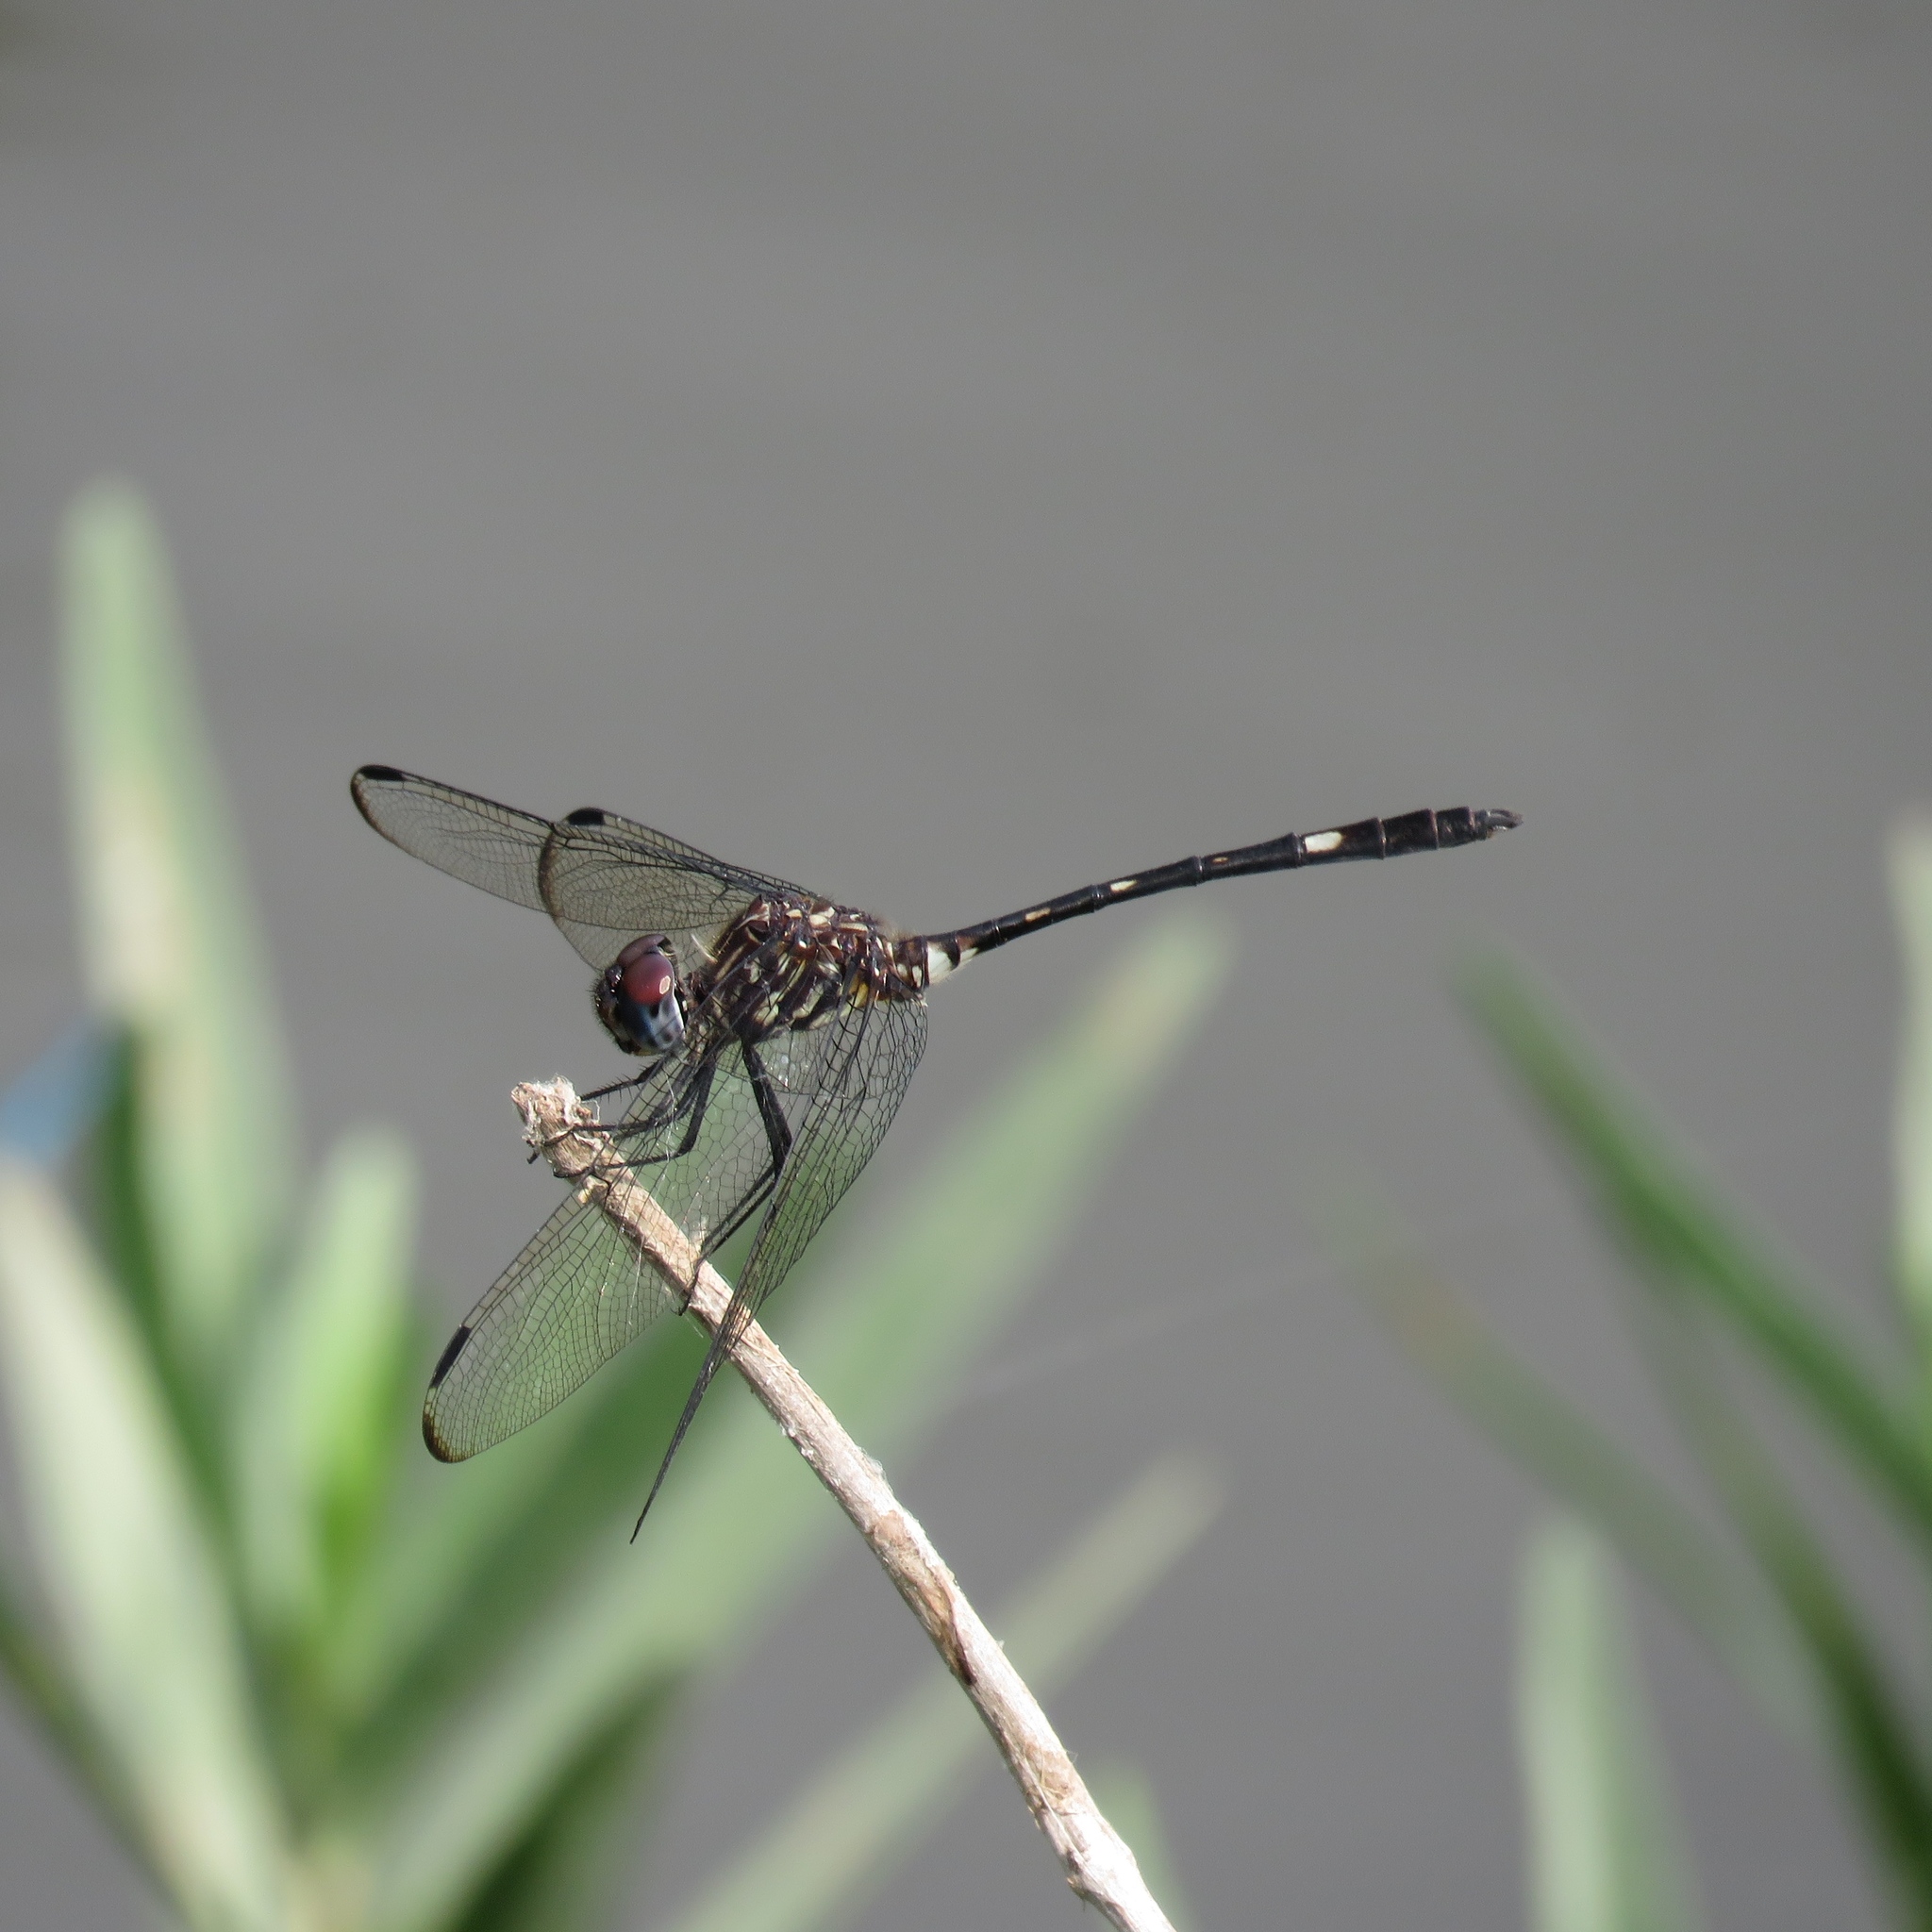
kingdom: Animalia
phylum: Arthropoda
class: Insecta
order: Odonata
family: Libellulidae
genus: Dythemis
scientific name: Dythemis velox
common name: Swift setwing
